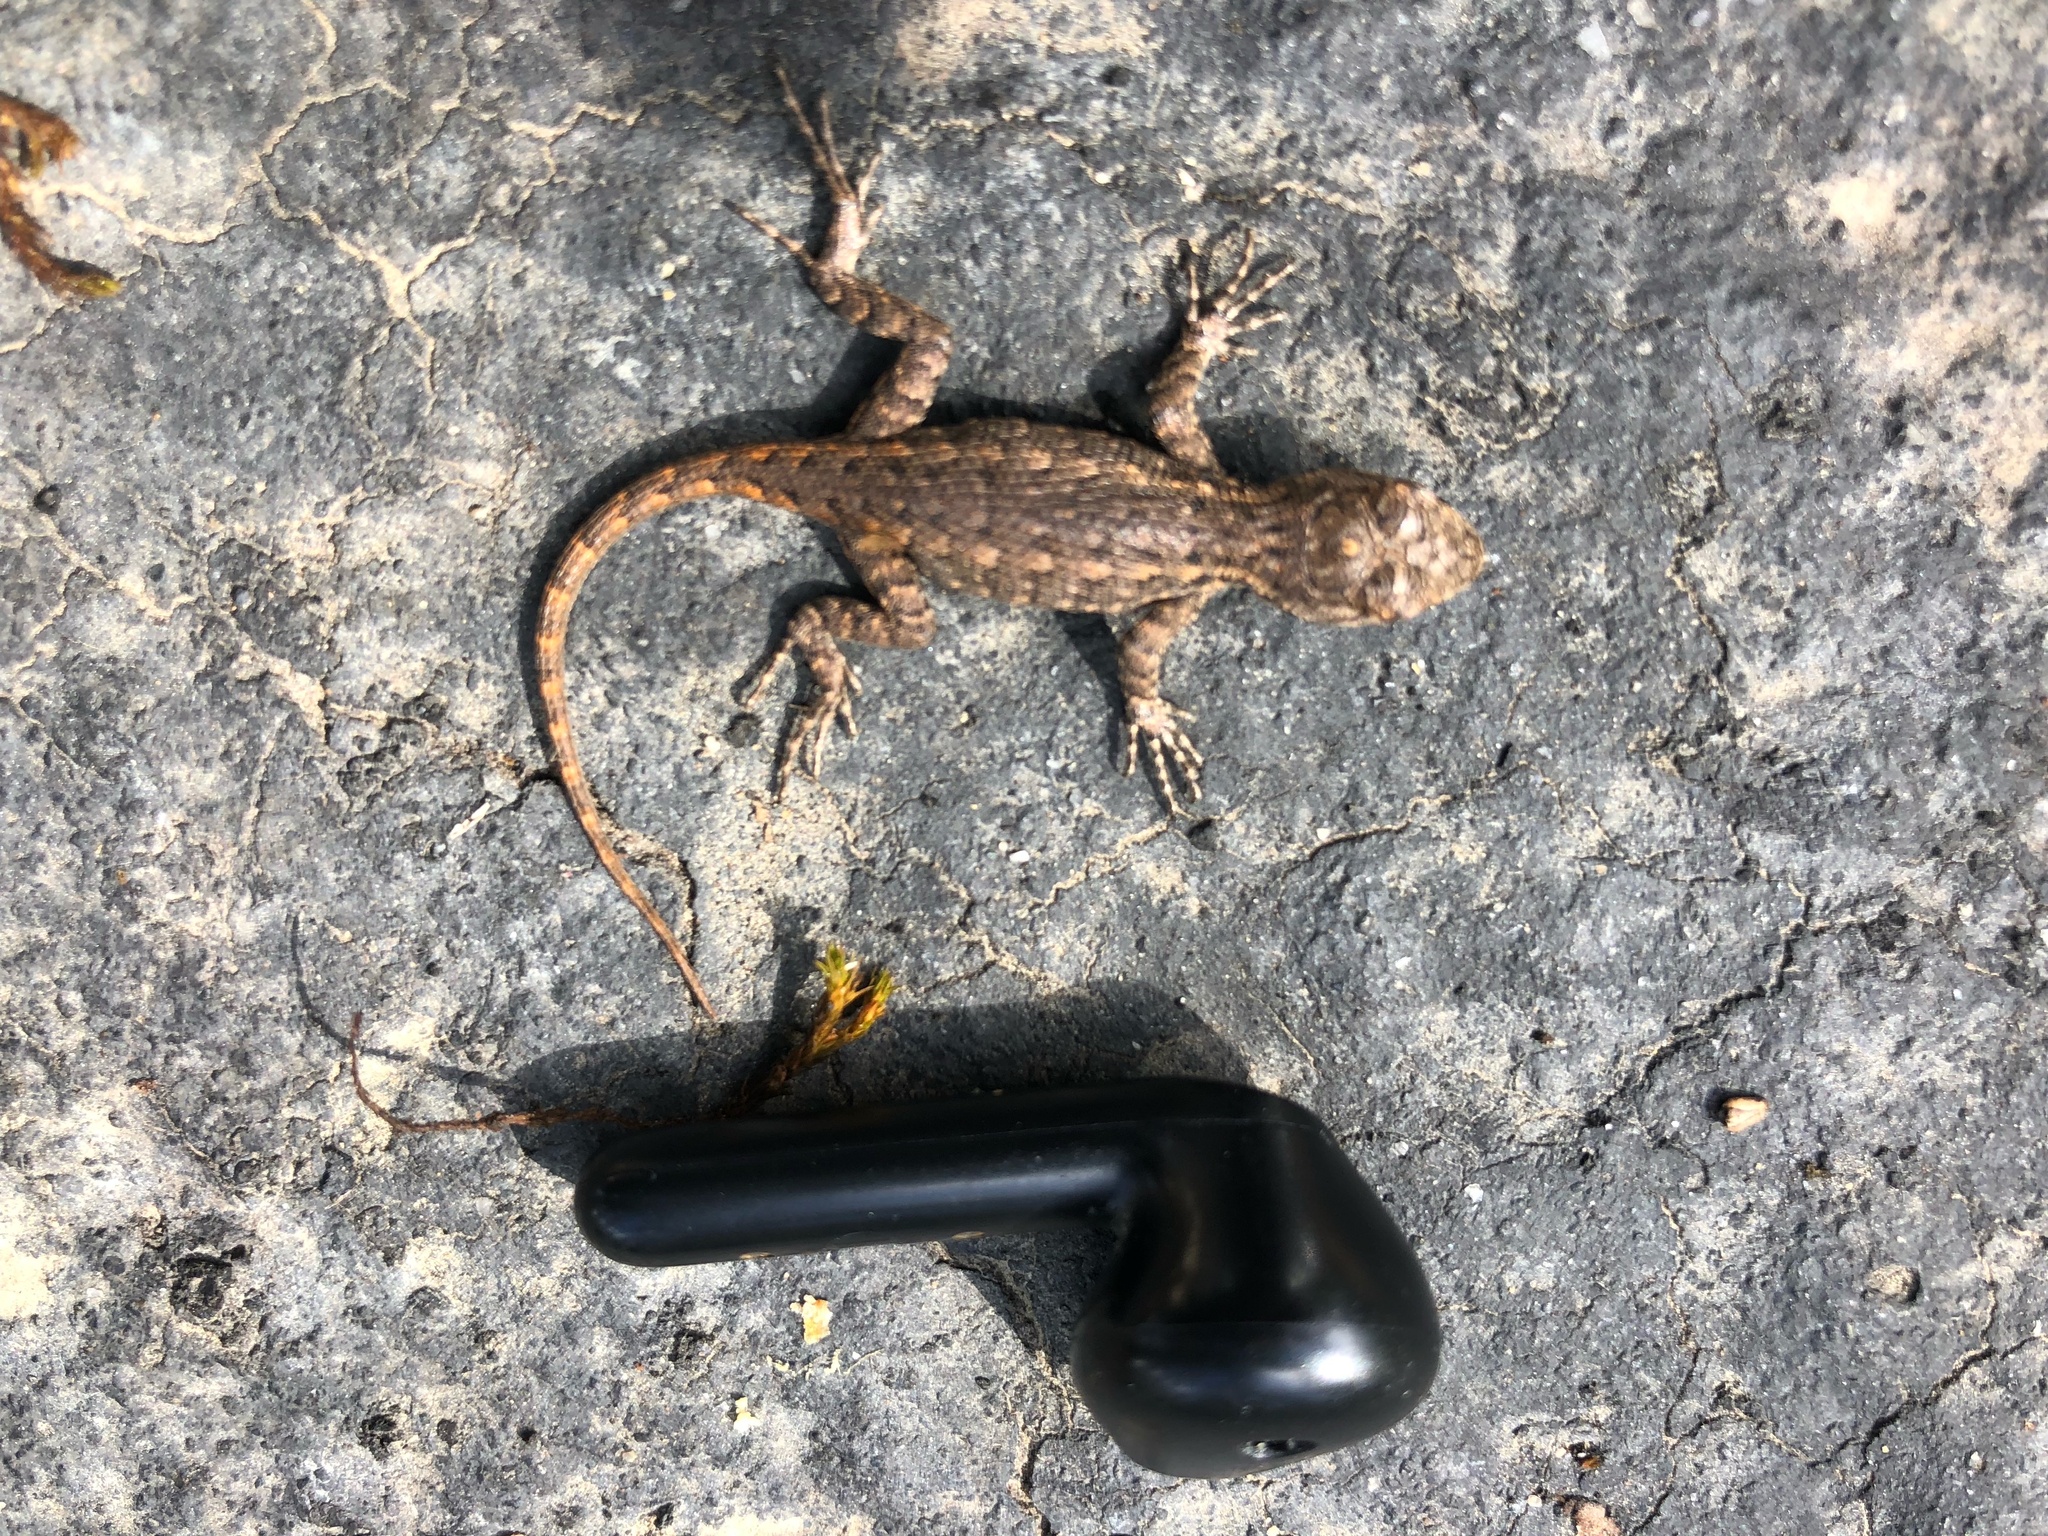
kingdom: Animalia
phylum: Chordata
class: Squamata
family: Phrynosomatidae
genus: Sceloporus
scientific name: Sceloporus occidentalis
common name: Western fence lizard
